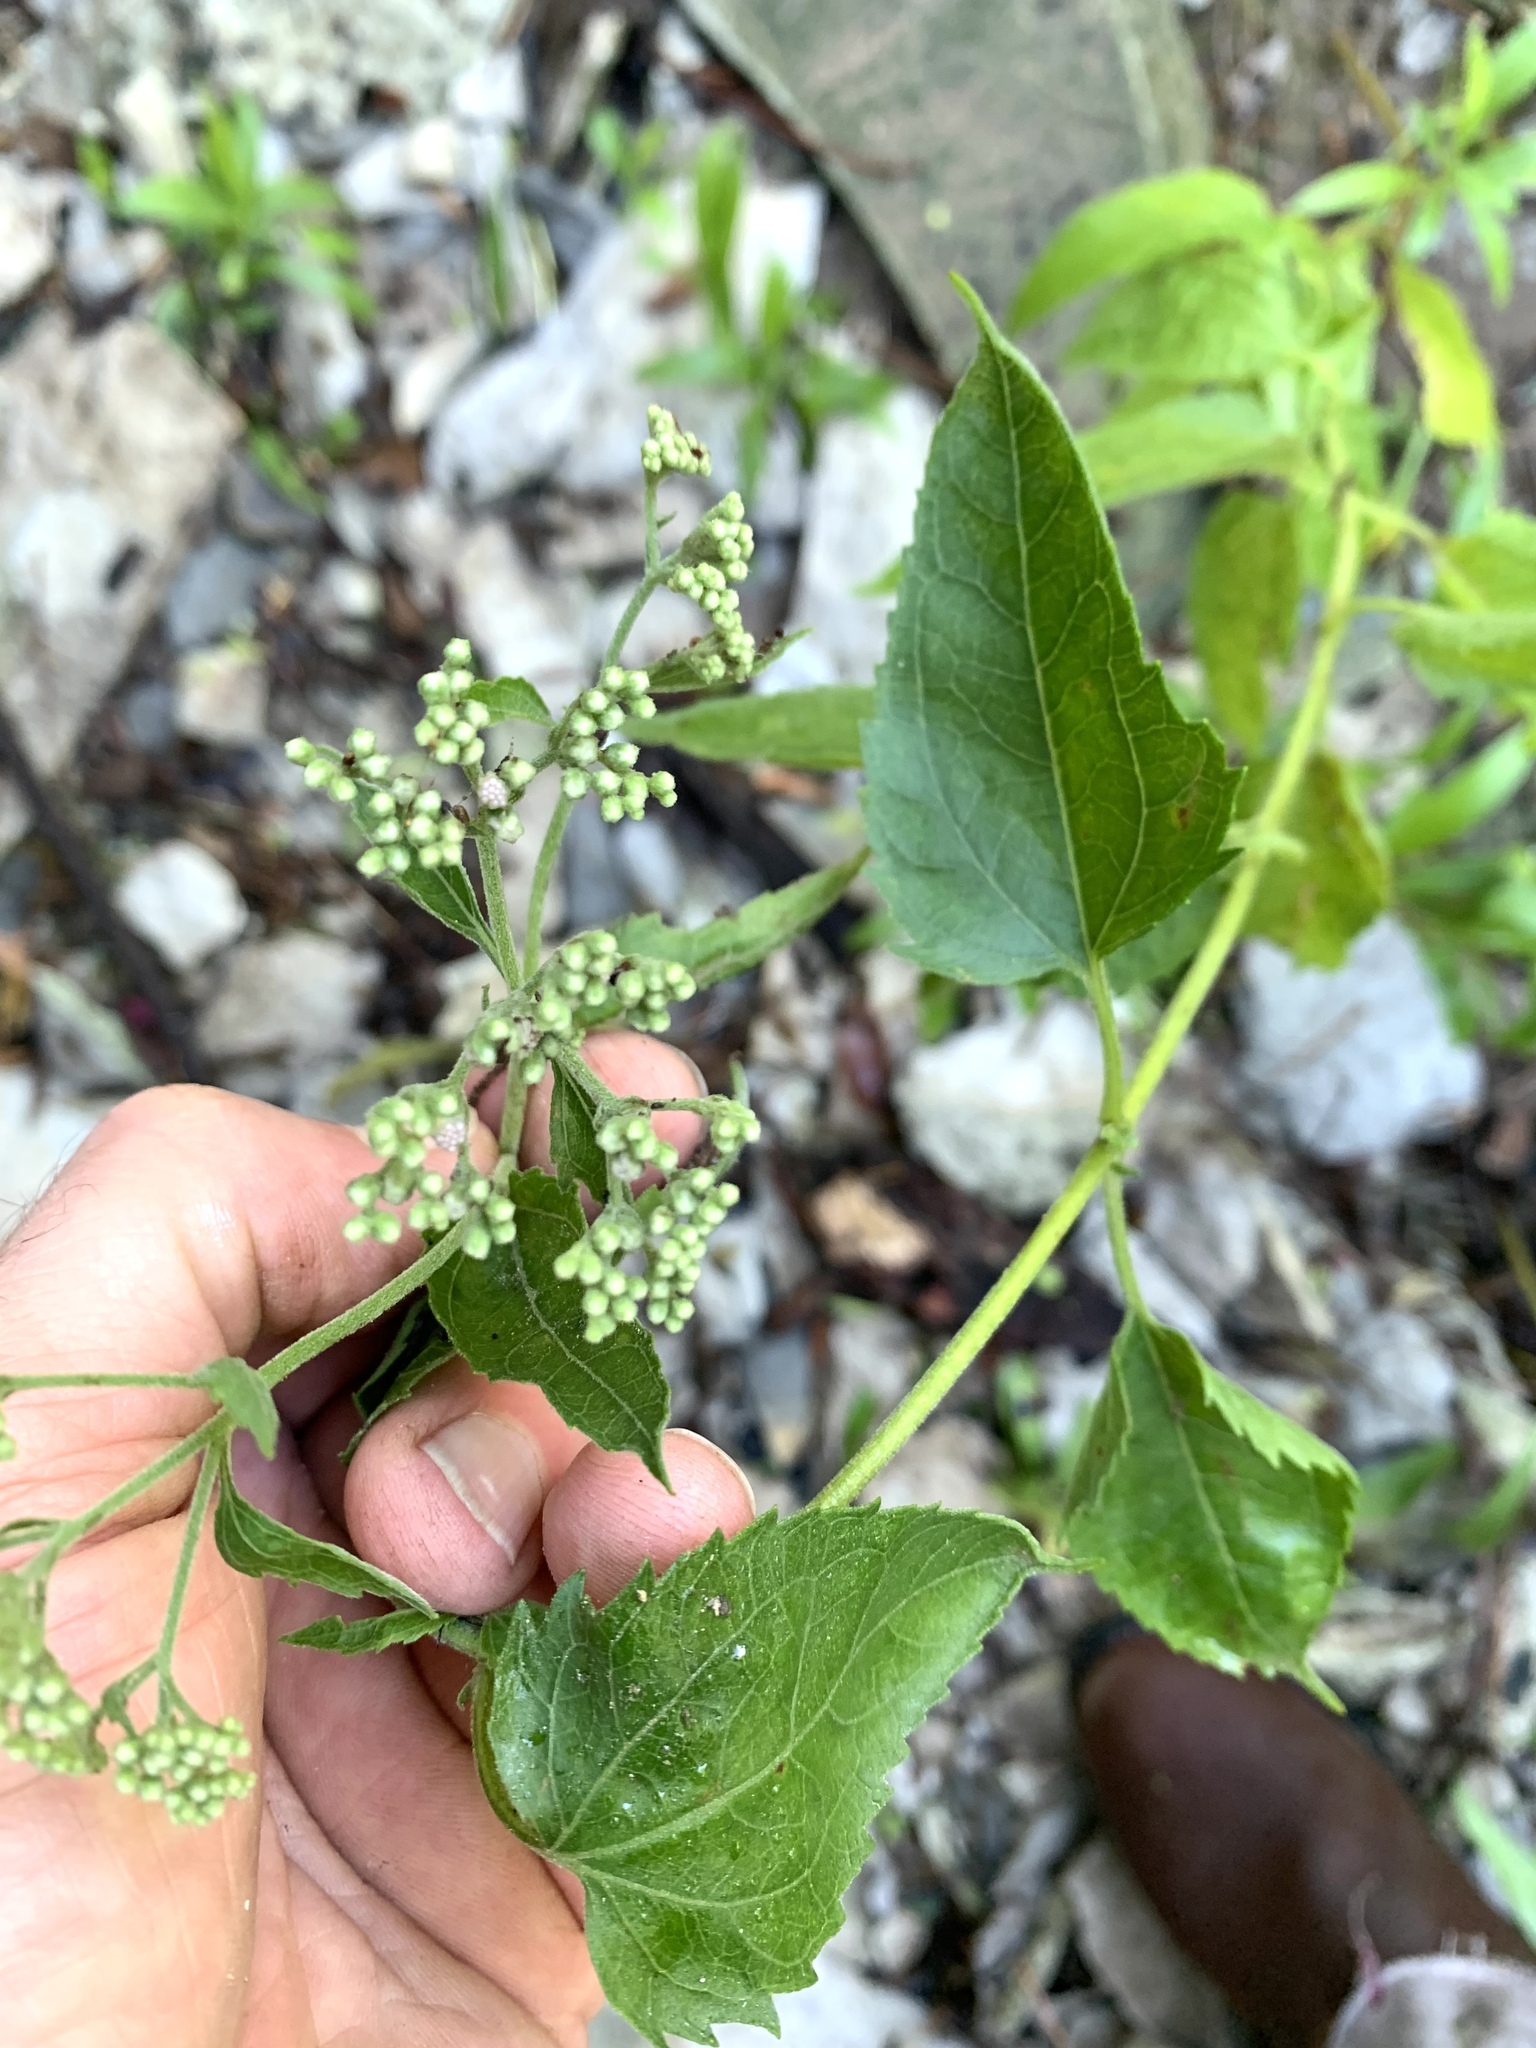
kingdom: Plantae
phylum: Tracheophyta
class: Magnoliopsida
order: Asterales
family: Asteraceae
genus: Eupatorium
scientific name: Eupatorium serotinum
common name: Late boneset
